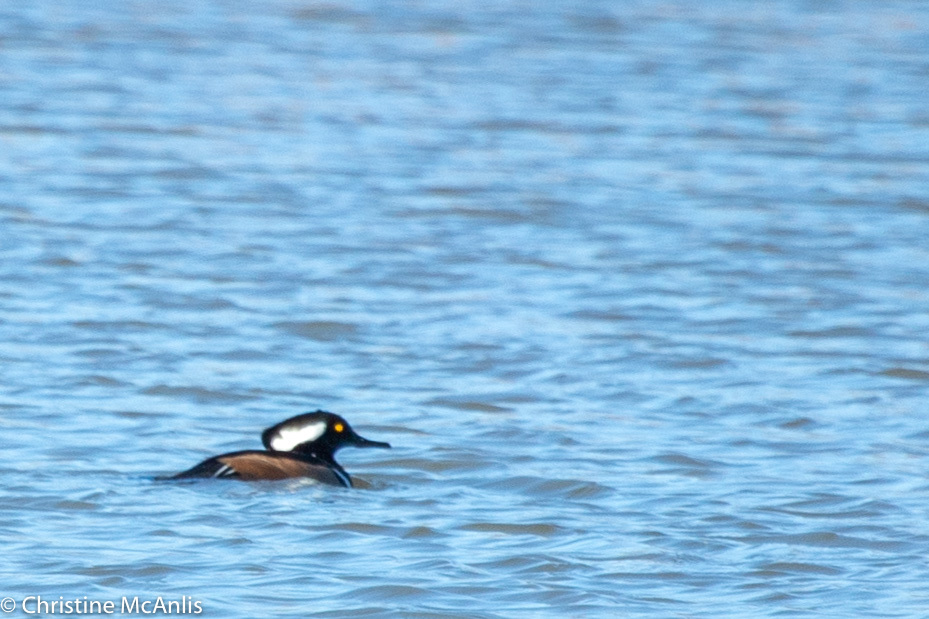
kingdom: Animalia
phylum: Chordata
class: Aves
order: Anseriformes
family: Anatidae
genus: Lophodytes
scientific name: Lophodytes cucullatus
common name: Hooded merganser
